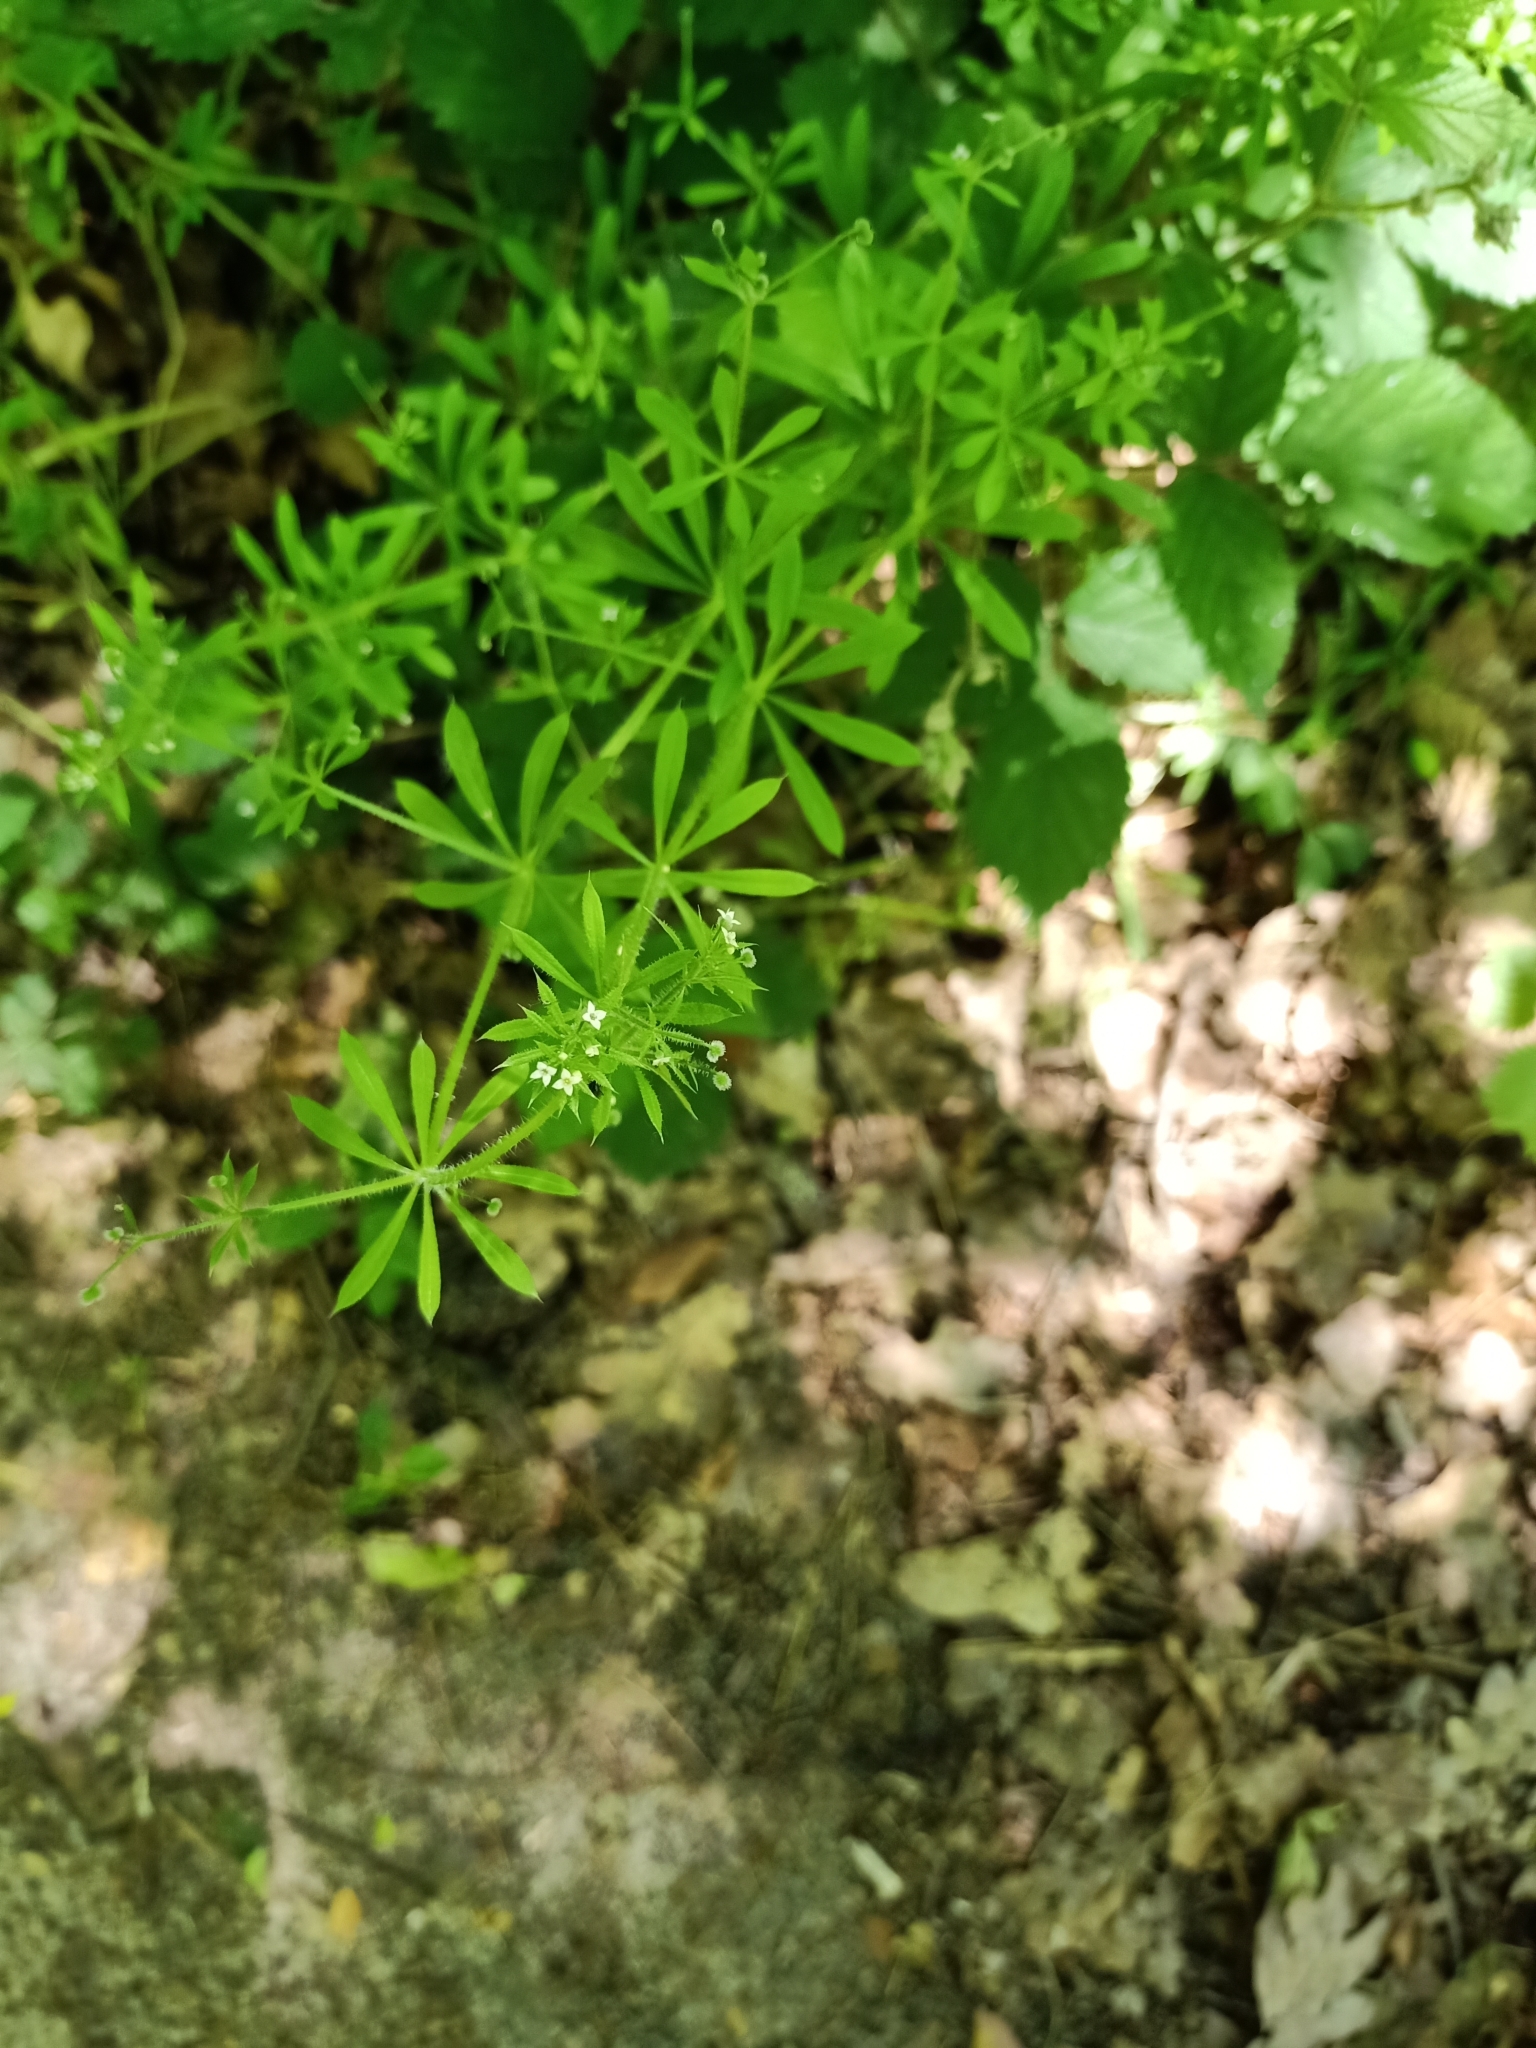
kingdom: Plantae
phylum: Tracheophyta
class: Magnoliopsida
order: Gentianales
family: Rubiaceae
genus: Galium
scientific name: Galium aparine
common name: Cleavers
